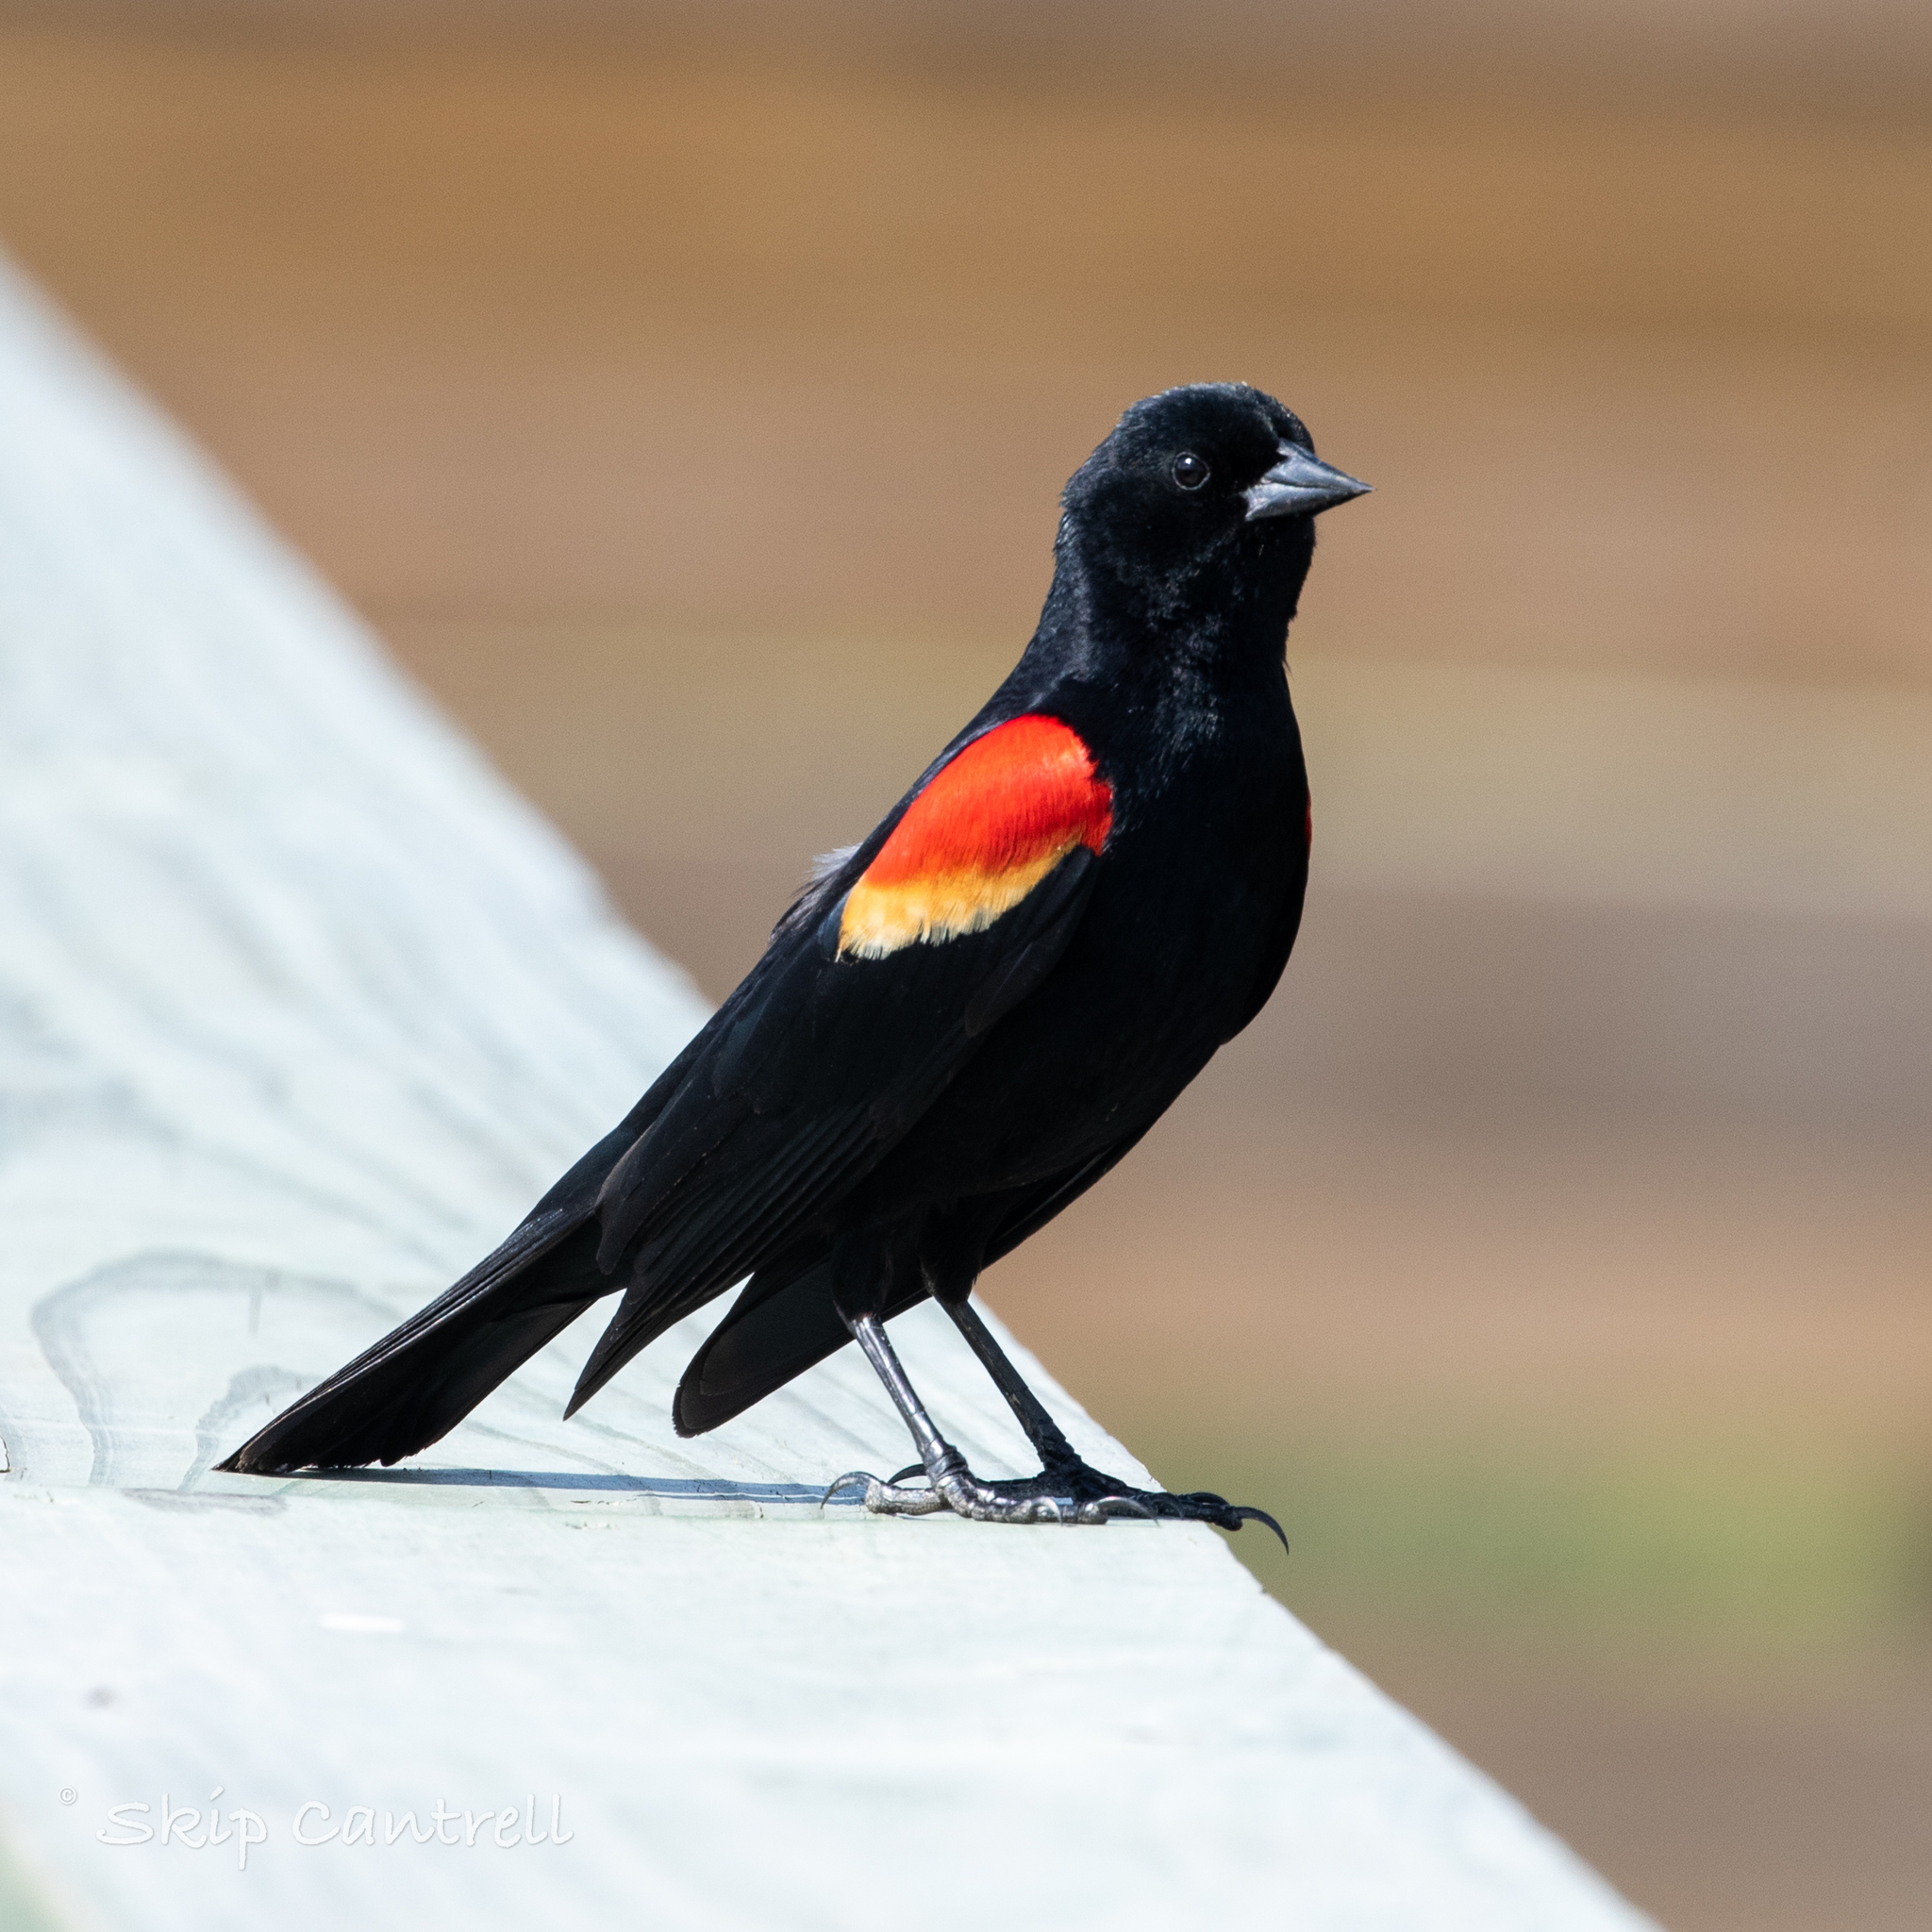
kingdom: Animalia
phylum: Chordata
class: Aves
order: Passeriformes
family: Icteridae
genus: Agelaius
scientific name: Agelaius phoeniceus
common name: Red-winged blackbird
